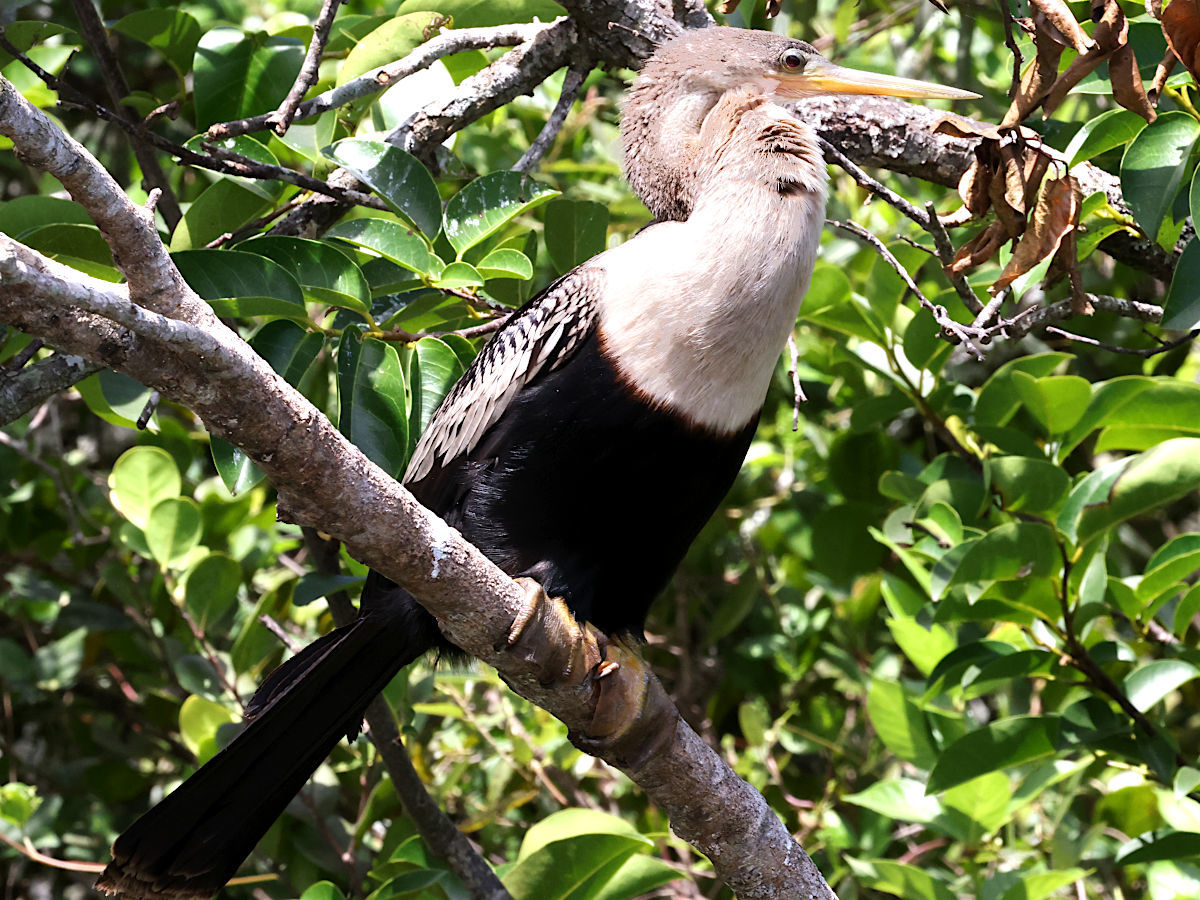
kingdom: Animalia
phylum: Chordata
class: Aves
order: Suliformes
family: Anhingidae
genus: Anhinga
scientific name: Anhinga anhinga
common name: Anhinga
